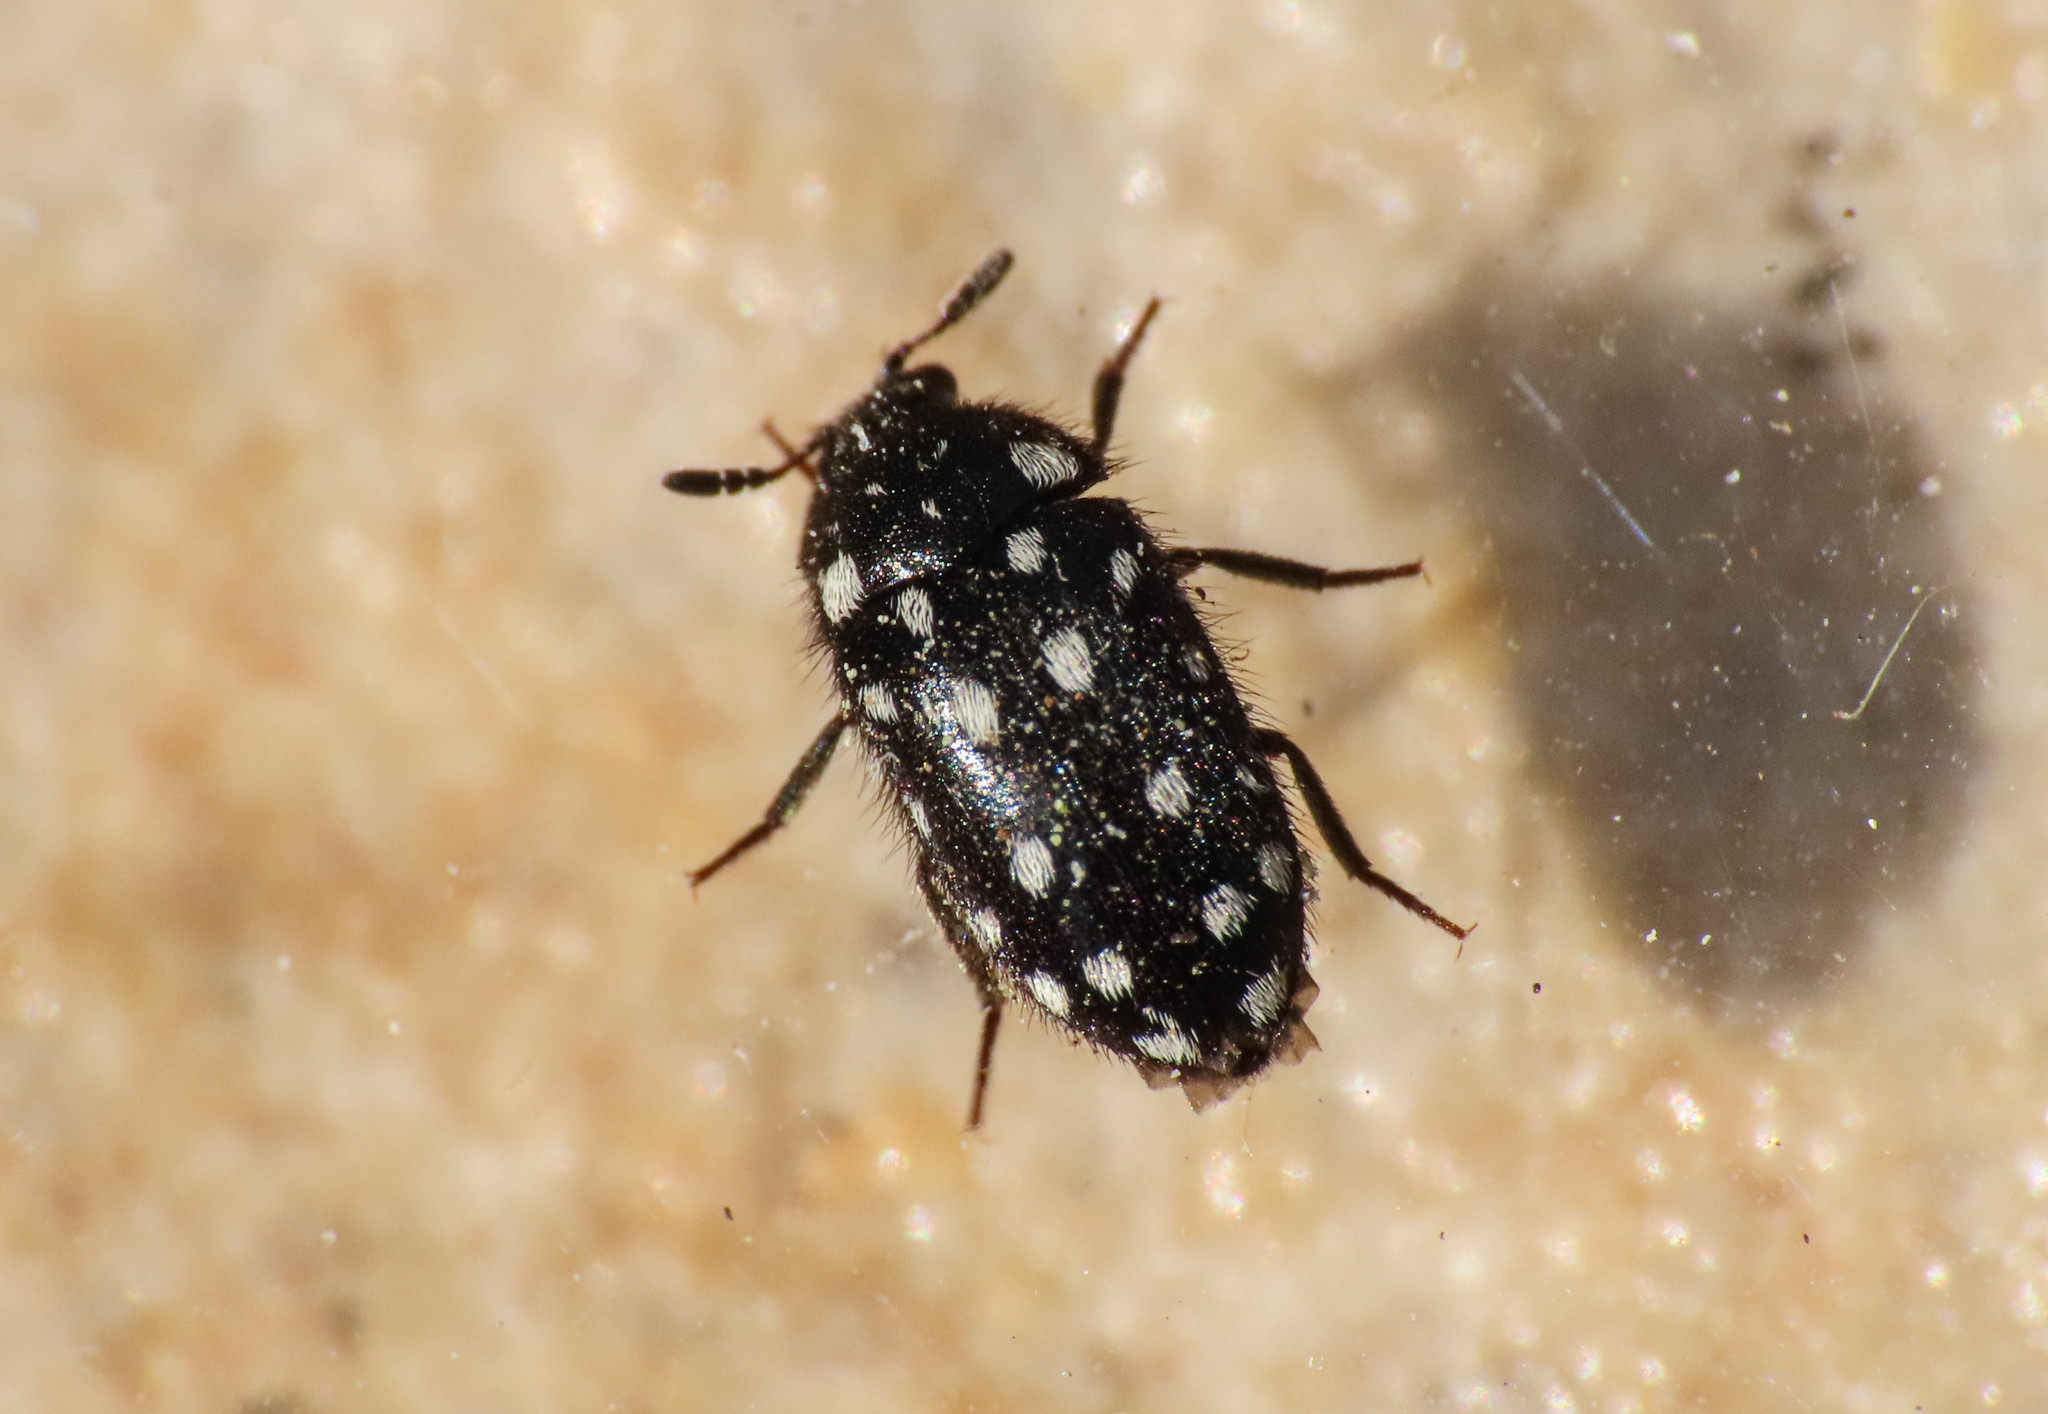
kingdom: Animalia
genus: Paranovelsis
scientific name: Paranovelsis
